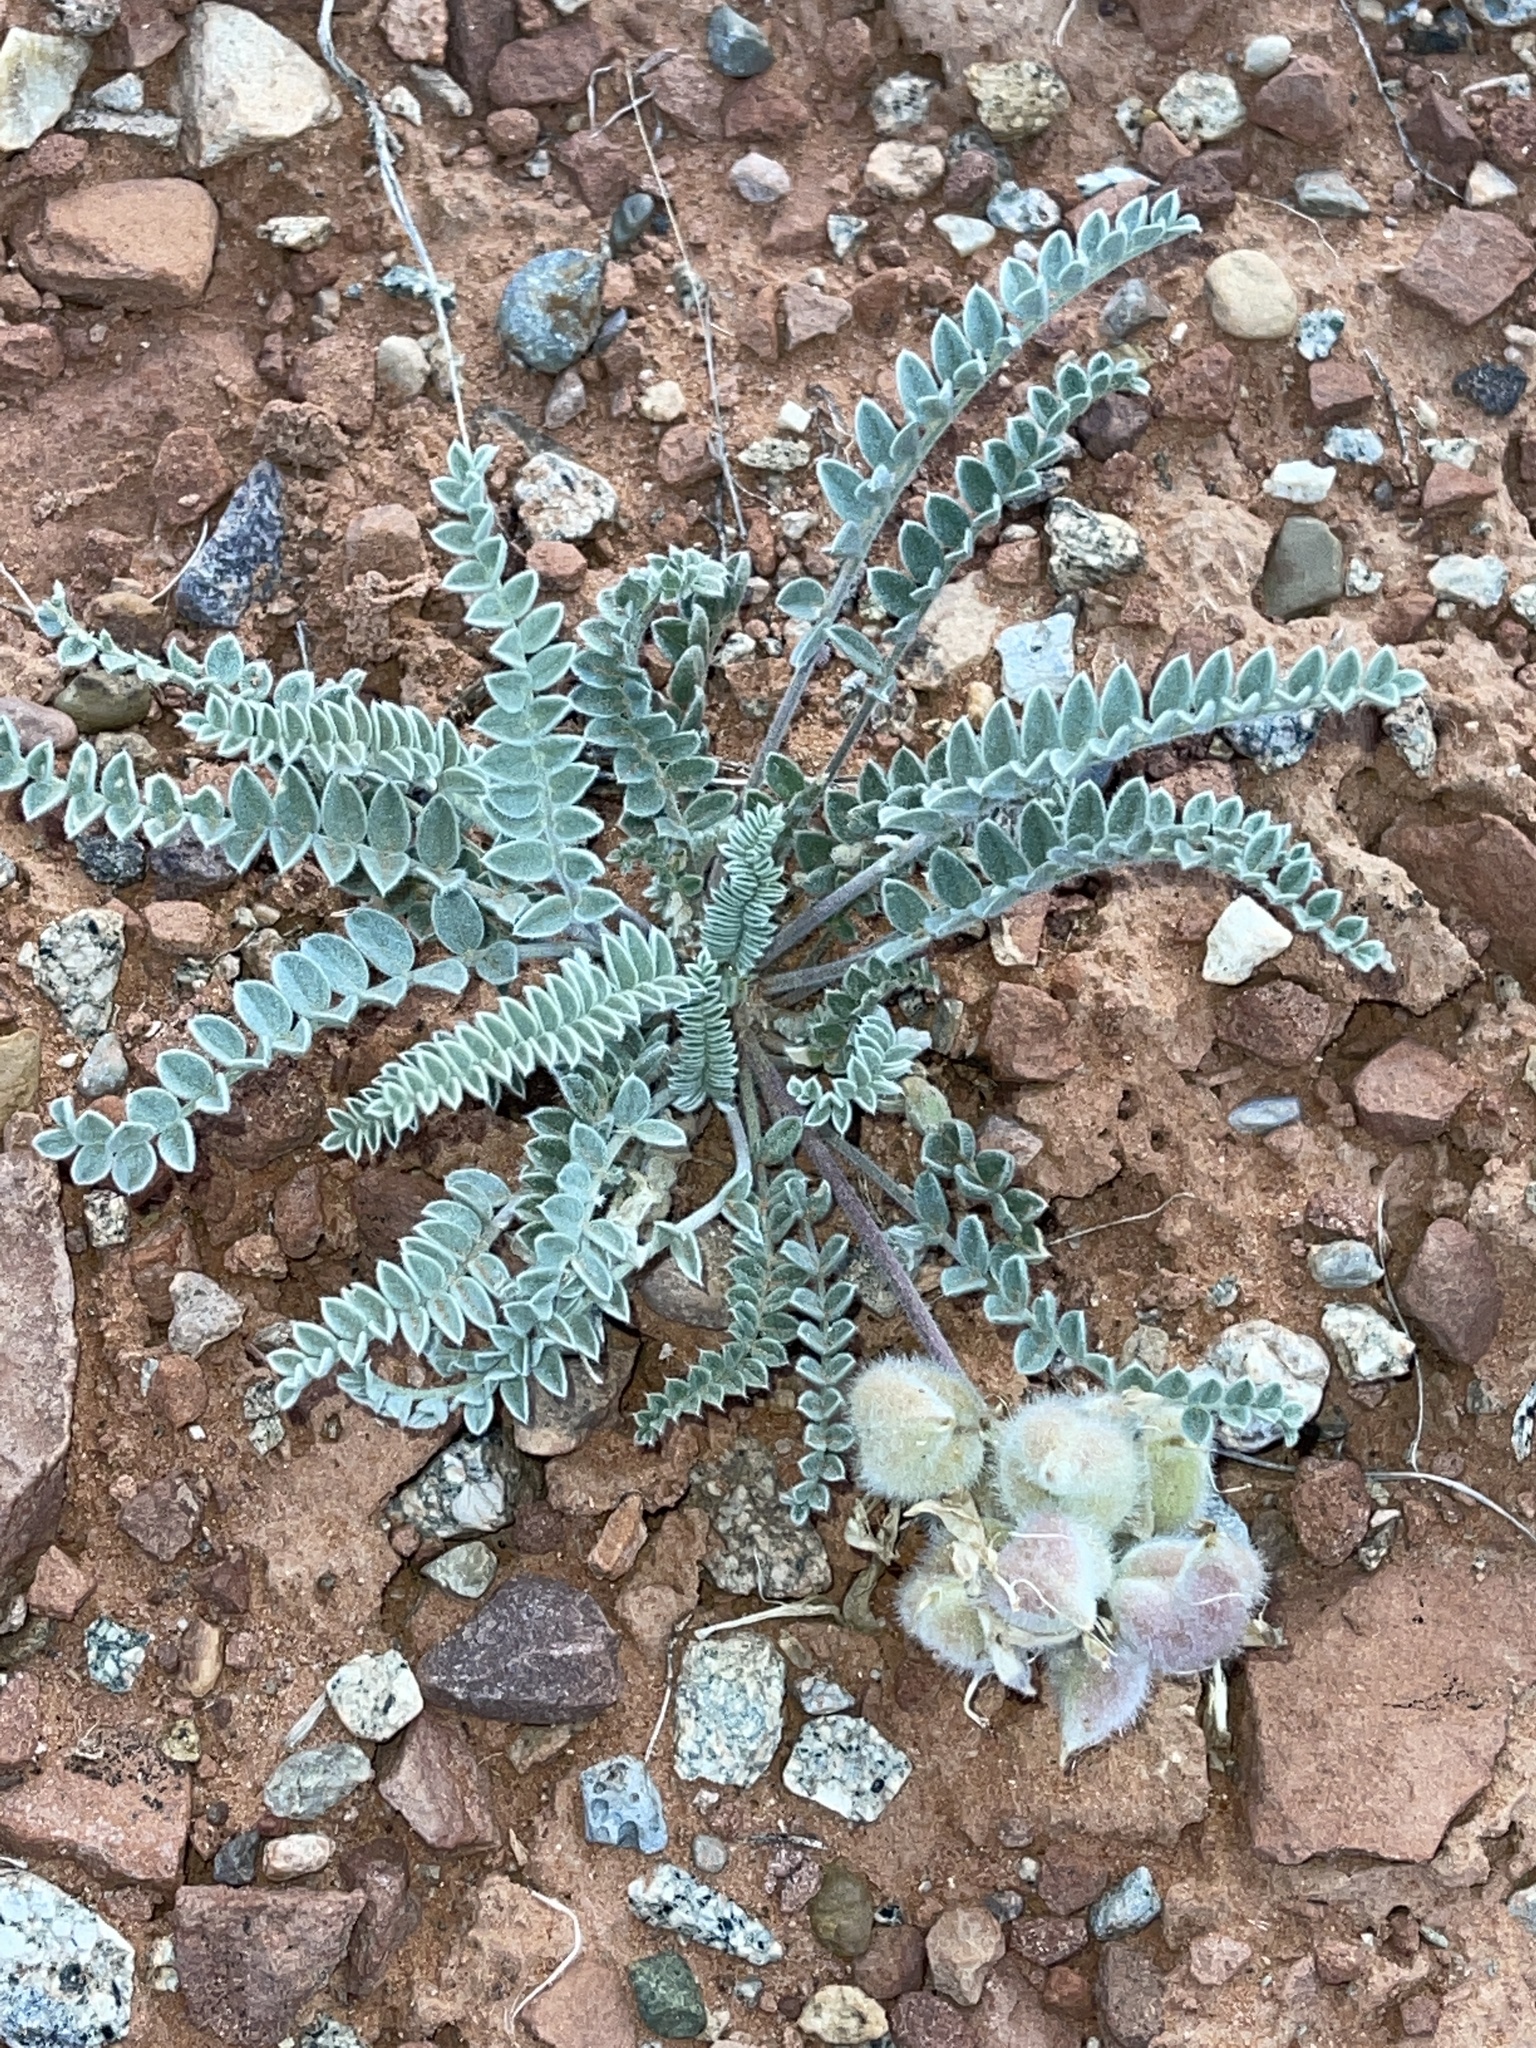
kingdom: Plantae
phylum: Tracheophyta
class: Magnoliopsida
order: Fabales
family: Fabaceae
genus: Astragalus
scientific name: Astragalus mollissimus
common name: Woolly locoweed
